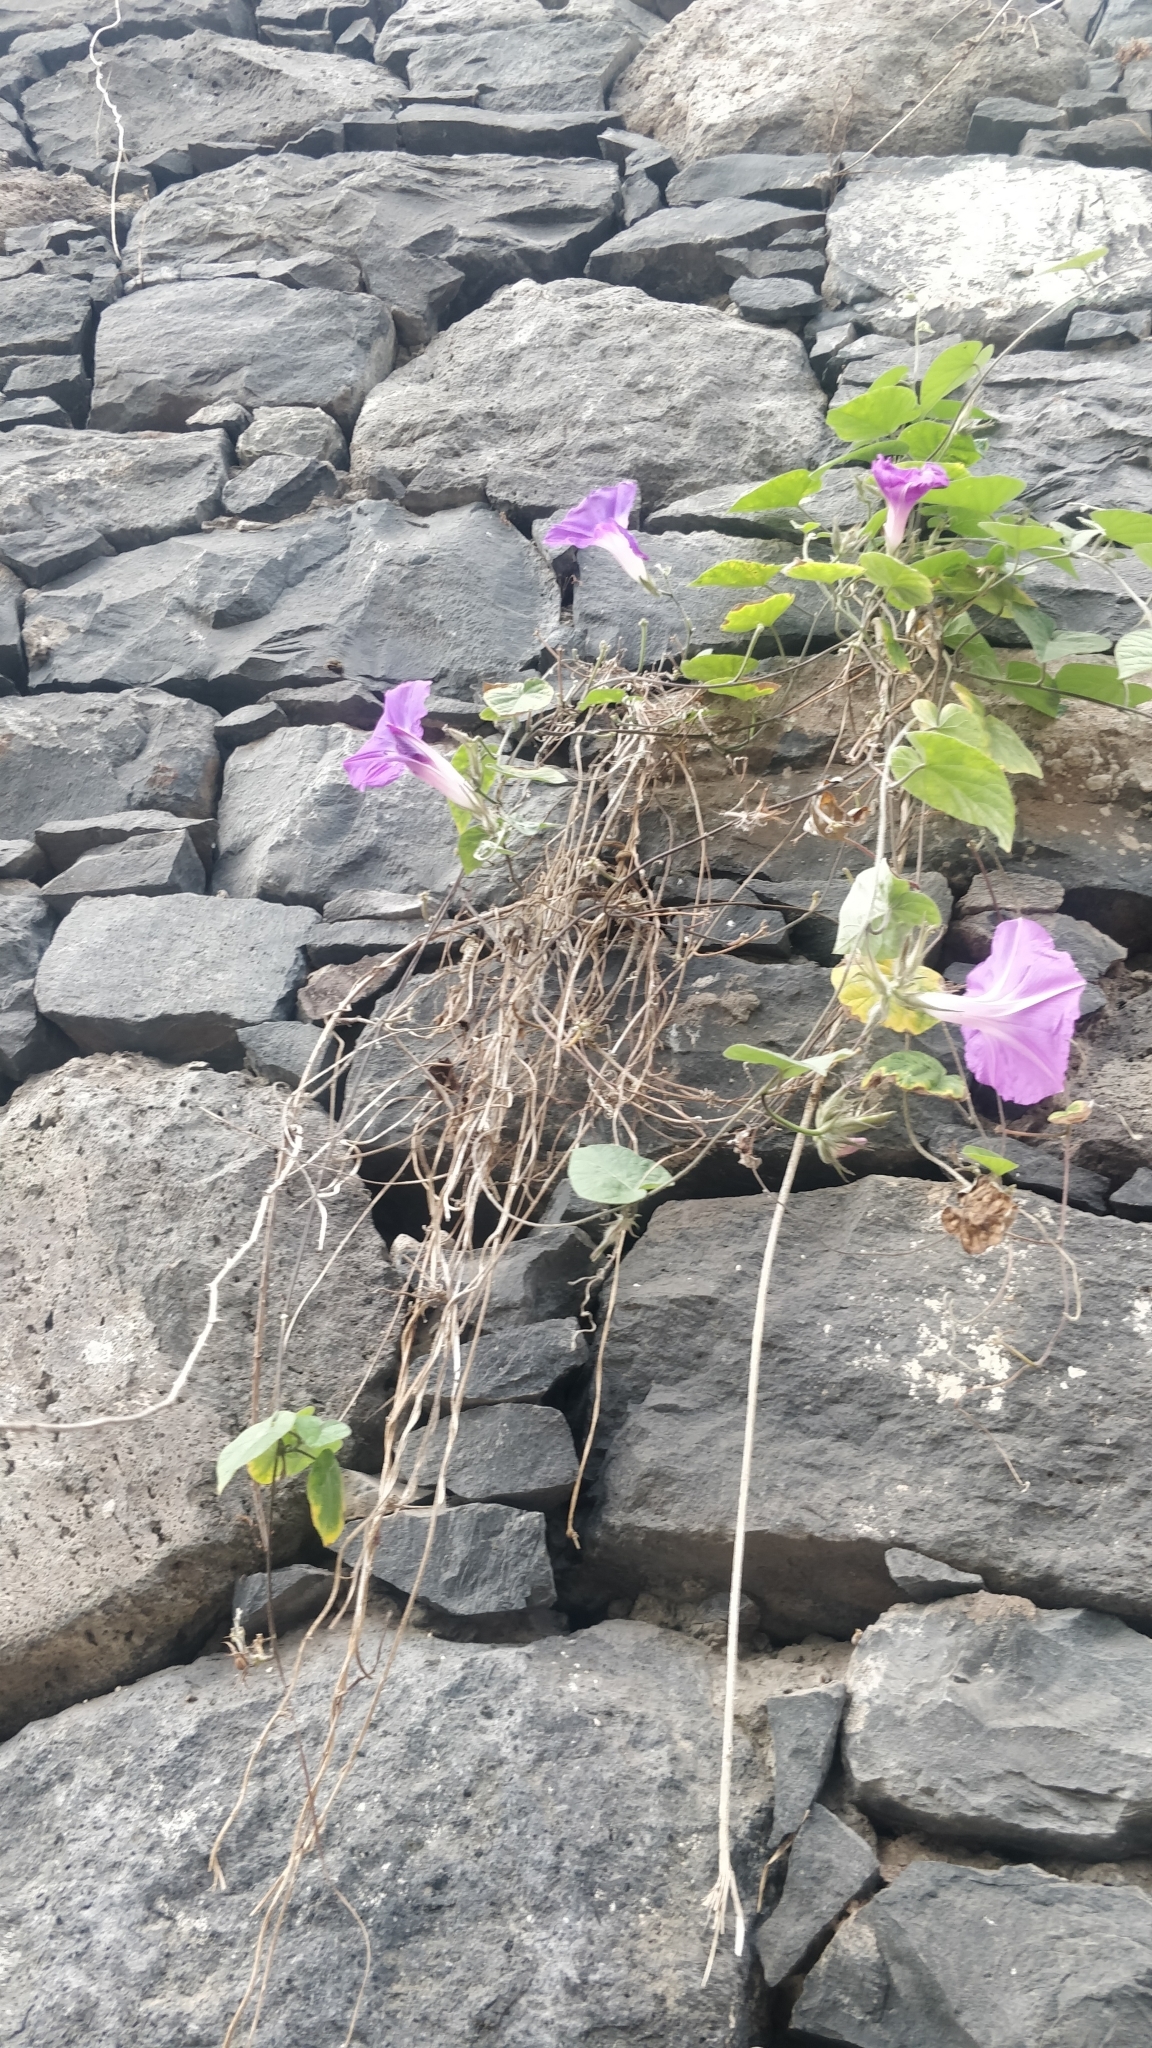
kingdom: Plantae
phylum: Tracheophyta
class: Magnoliopsida
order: Solanales
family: Convolvulaceae
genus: Ipomoea
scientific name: Ipomoea indica
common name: Blue dawnflower
